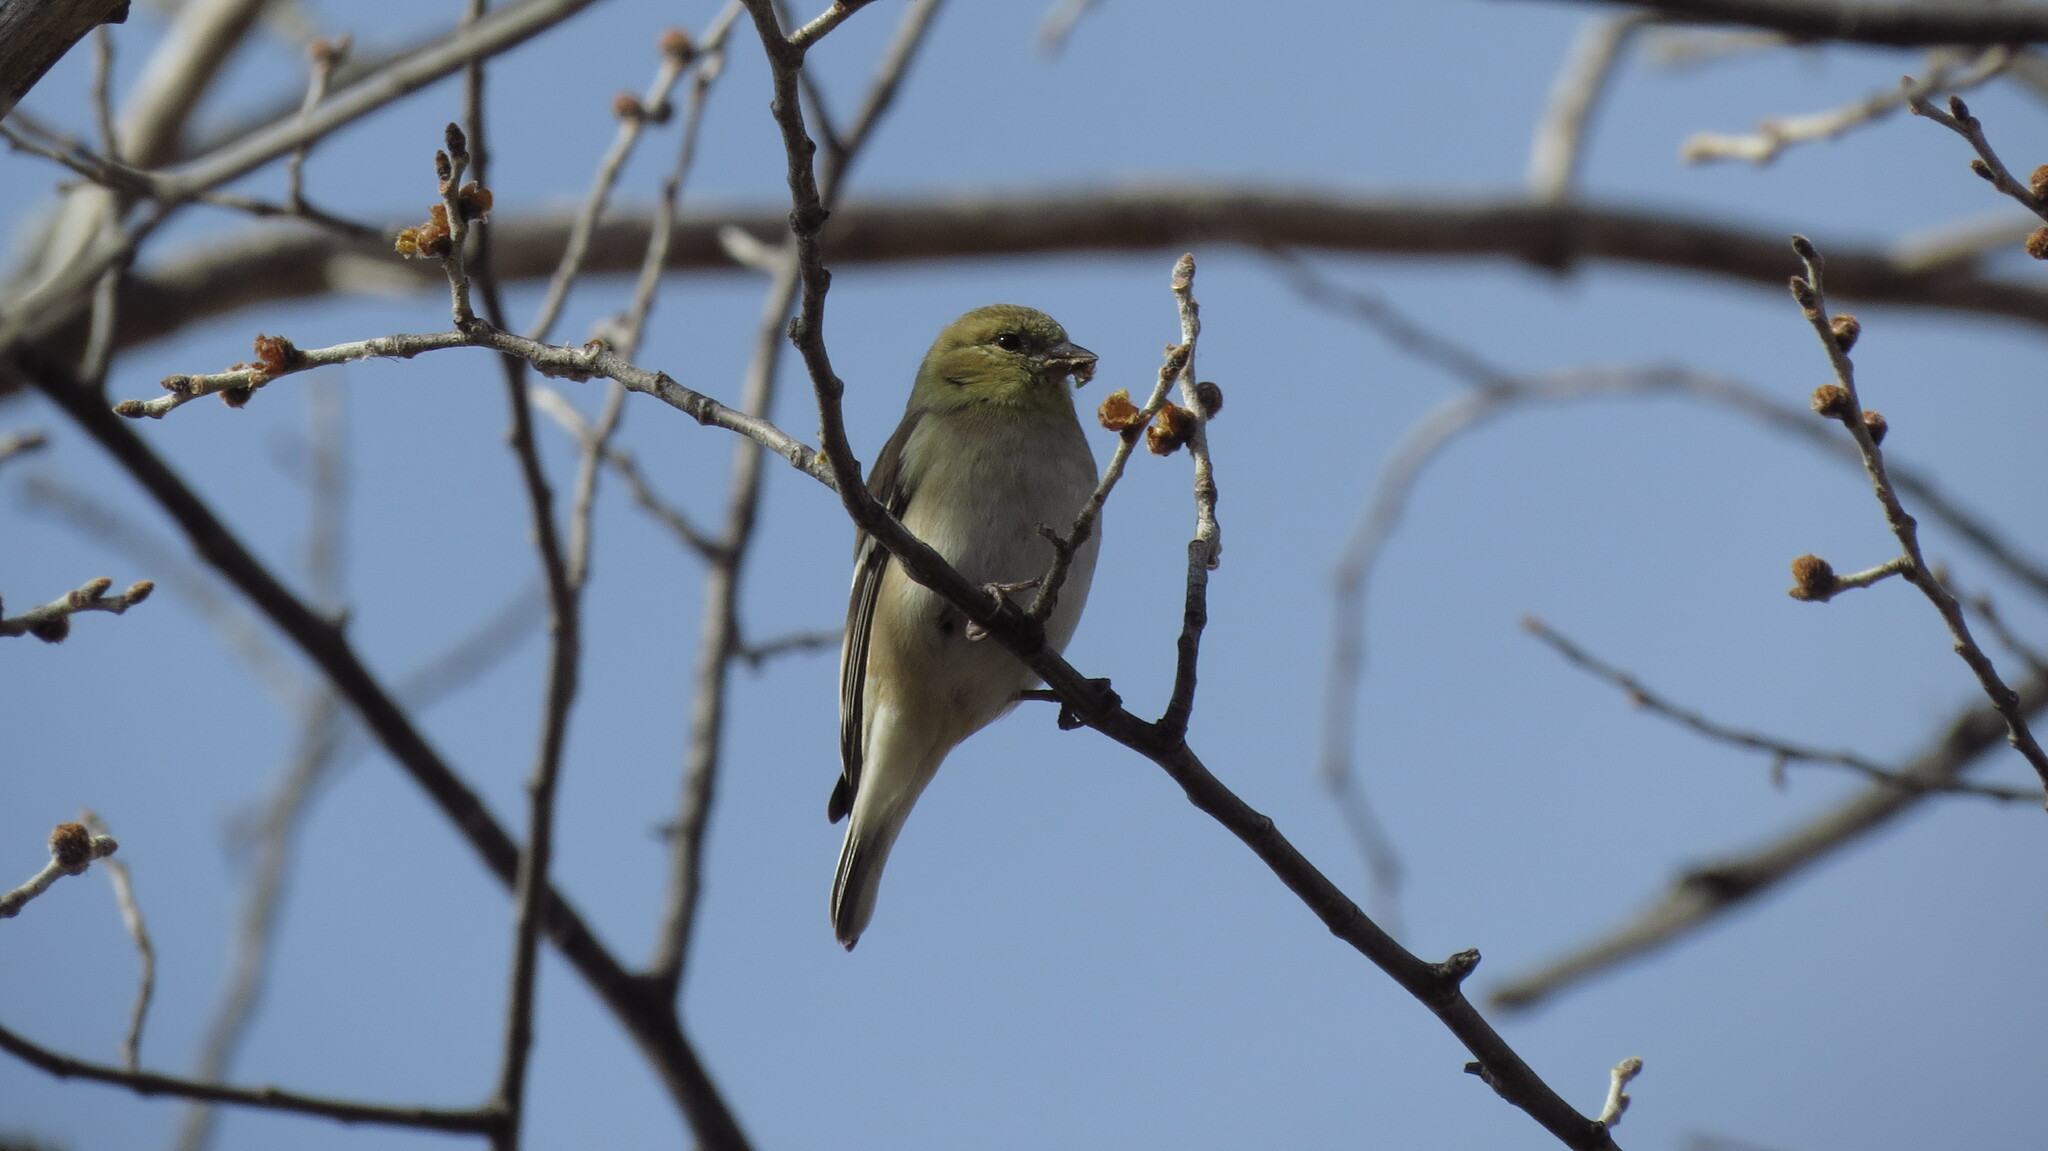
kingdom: Animalia
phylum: Chordata
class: Aves
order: Passeriformes
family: Fringillidae
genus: Spinus
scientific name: Spinus tristis
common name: American goldfinch
